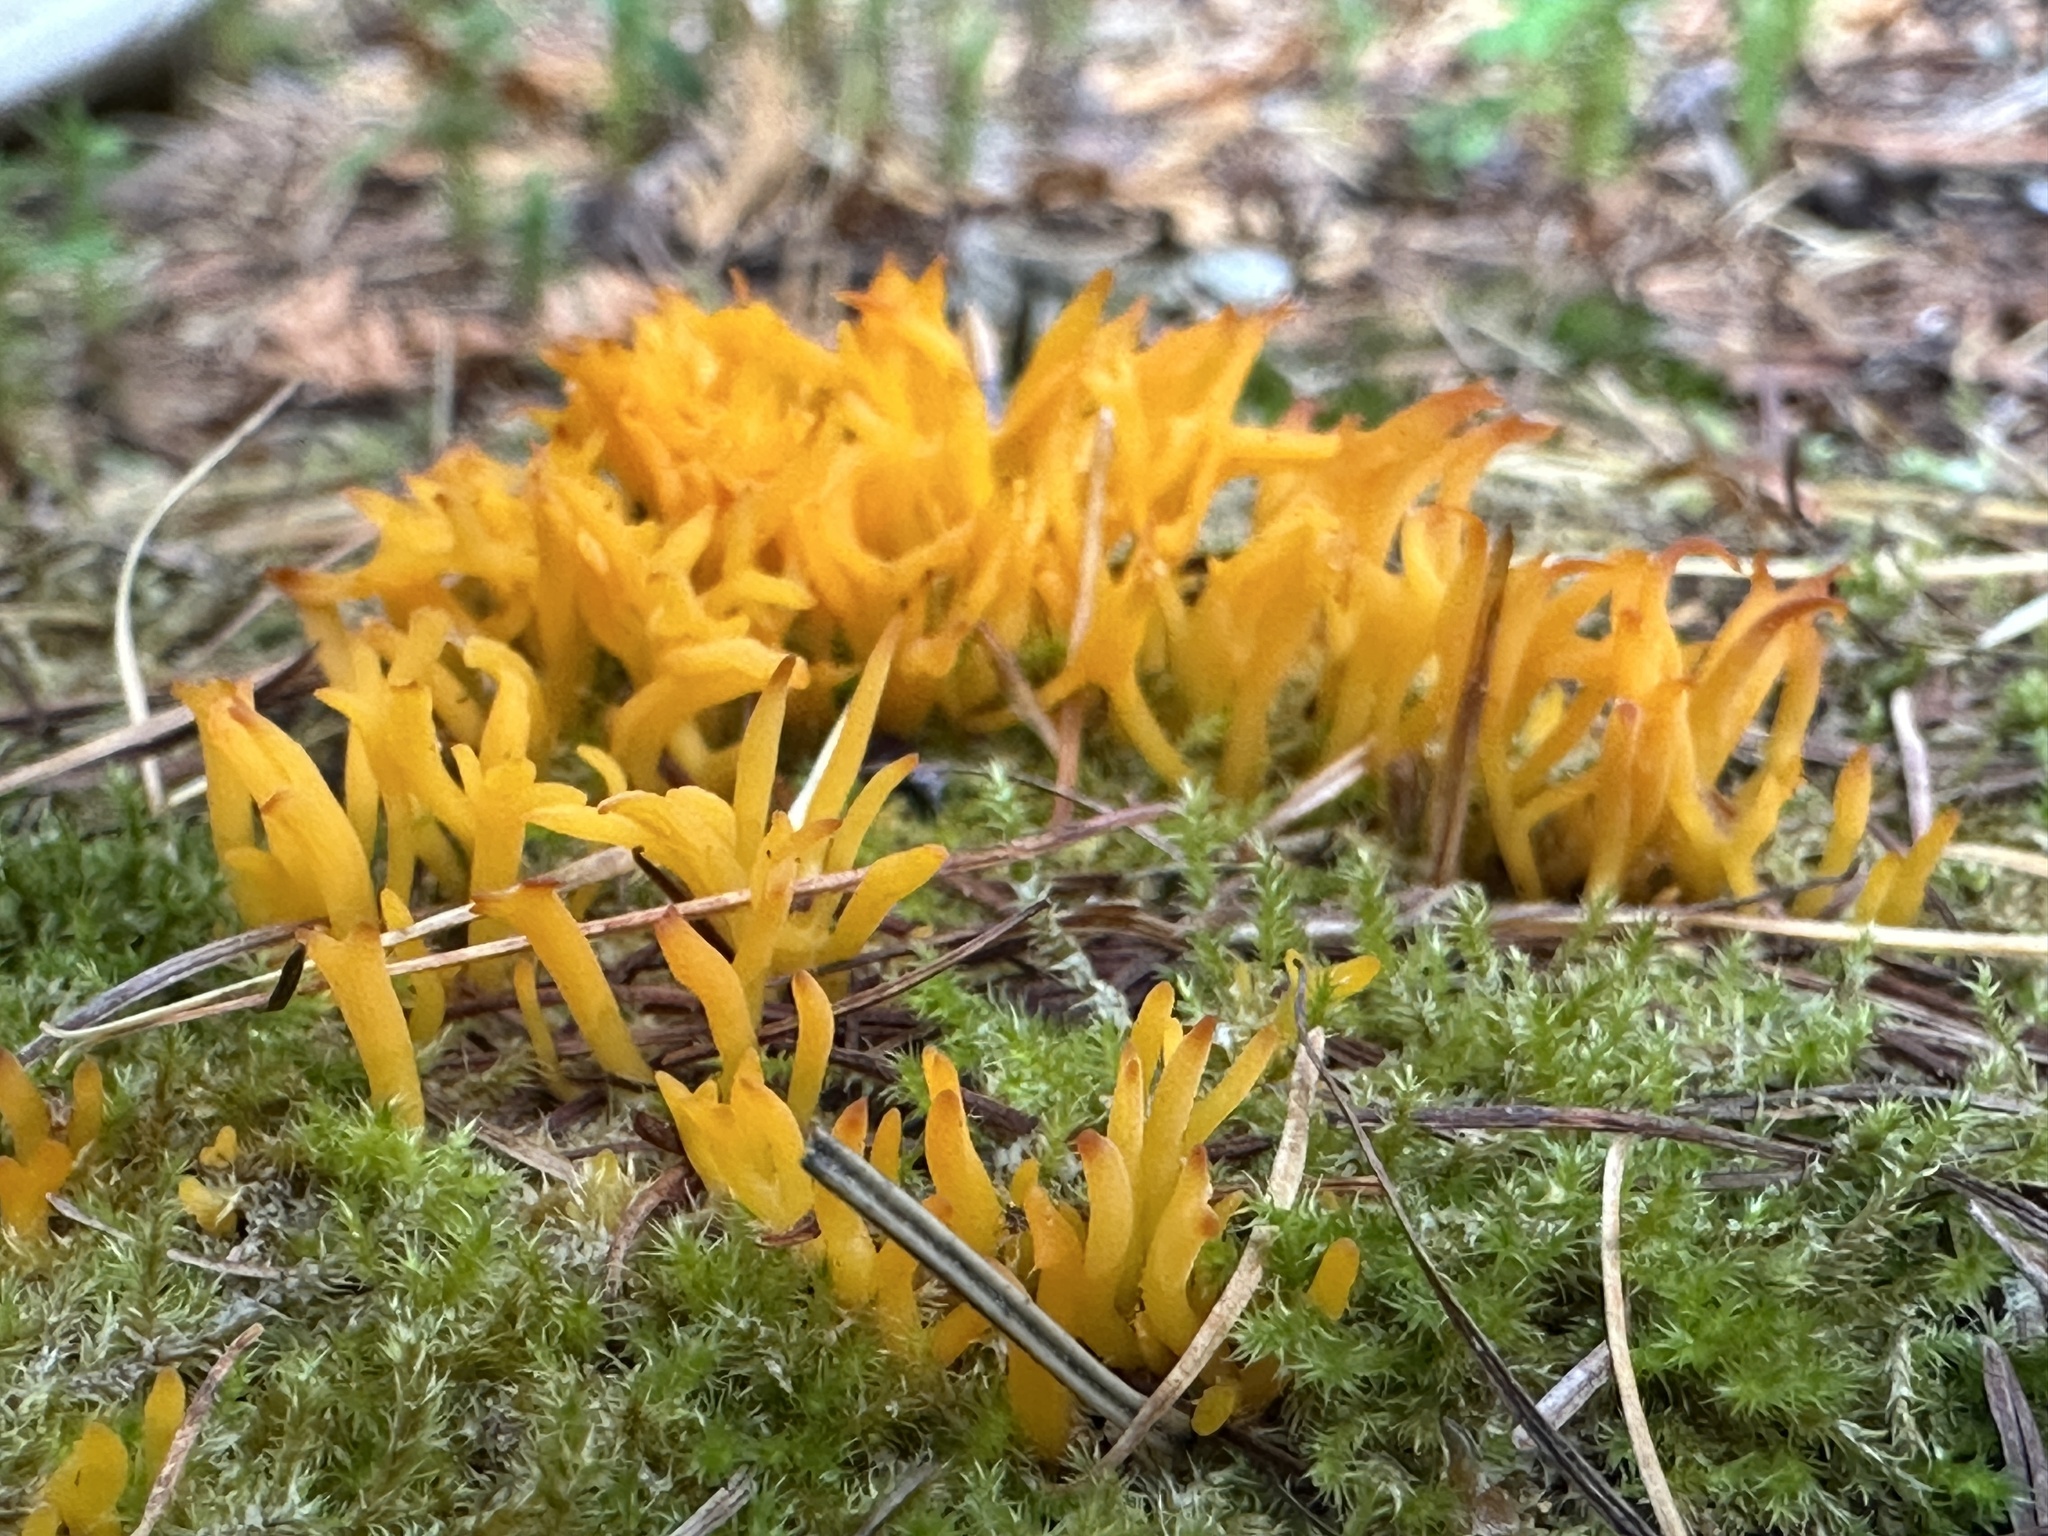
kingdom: Fungi
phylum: Basidiomycota
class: Dacrymycetes
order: Dacrymycetales
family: Dacrymycetaceae
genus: Calocera
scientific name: Calocera viscosa
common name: Yellow stagshorn
